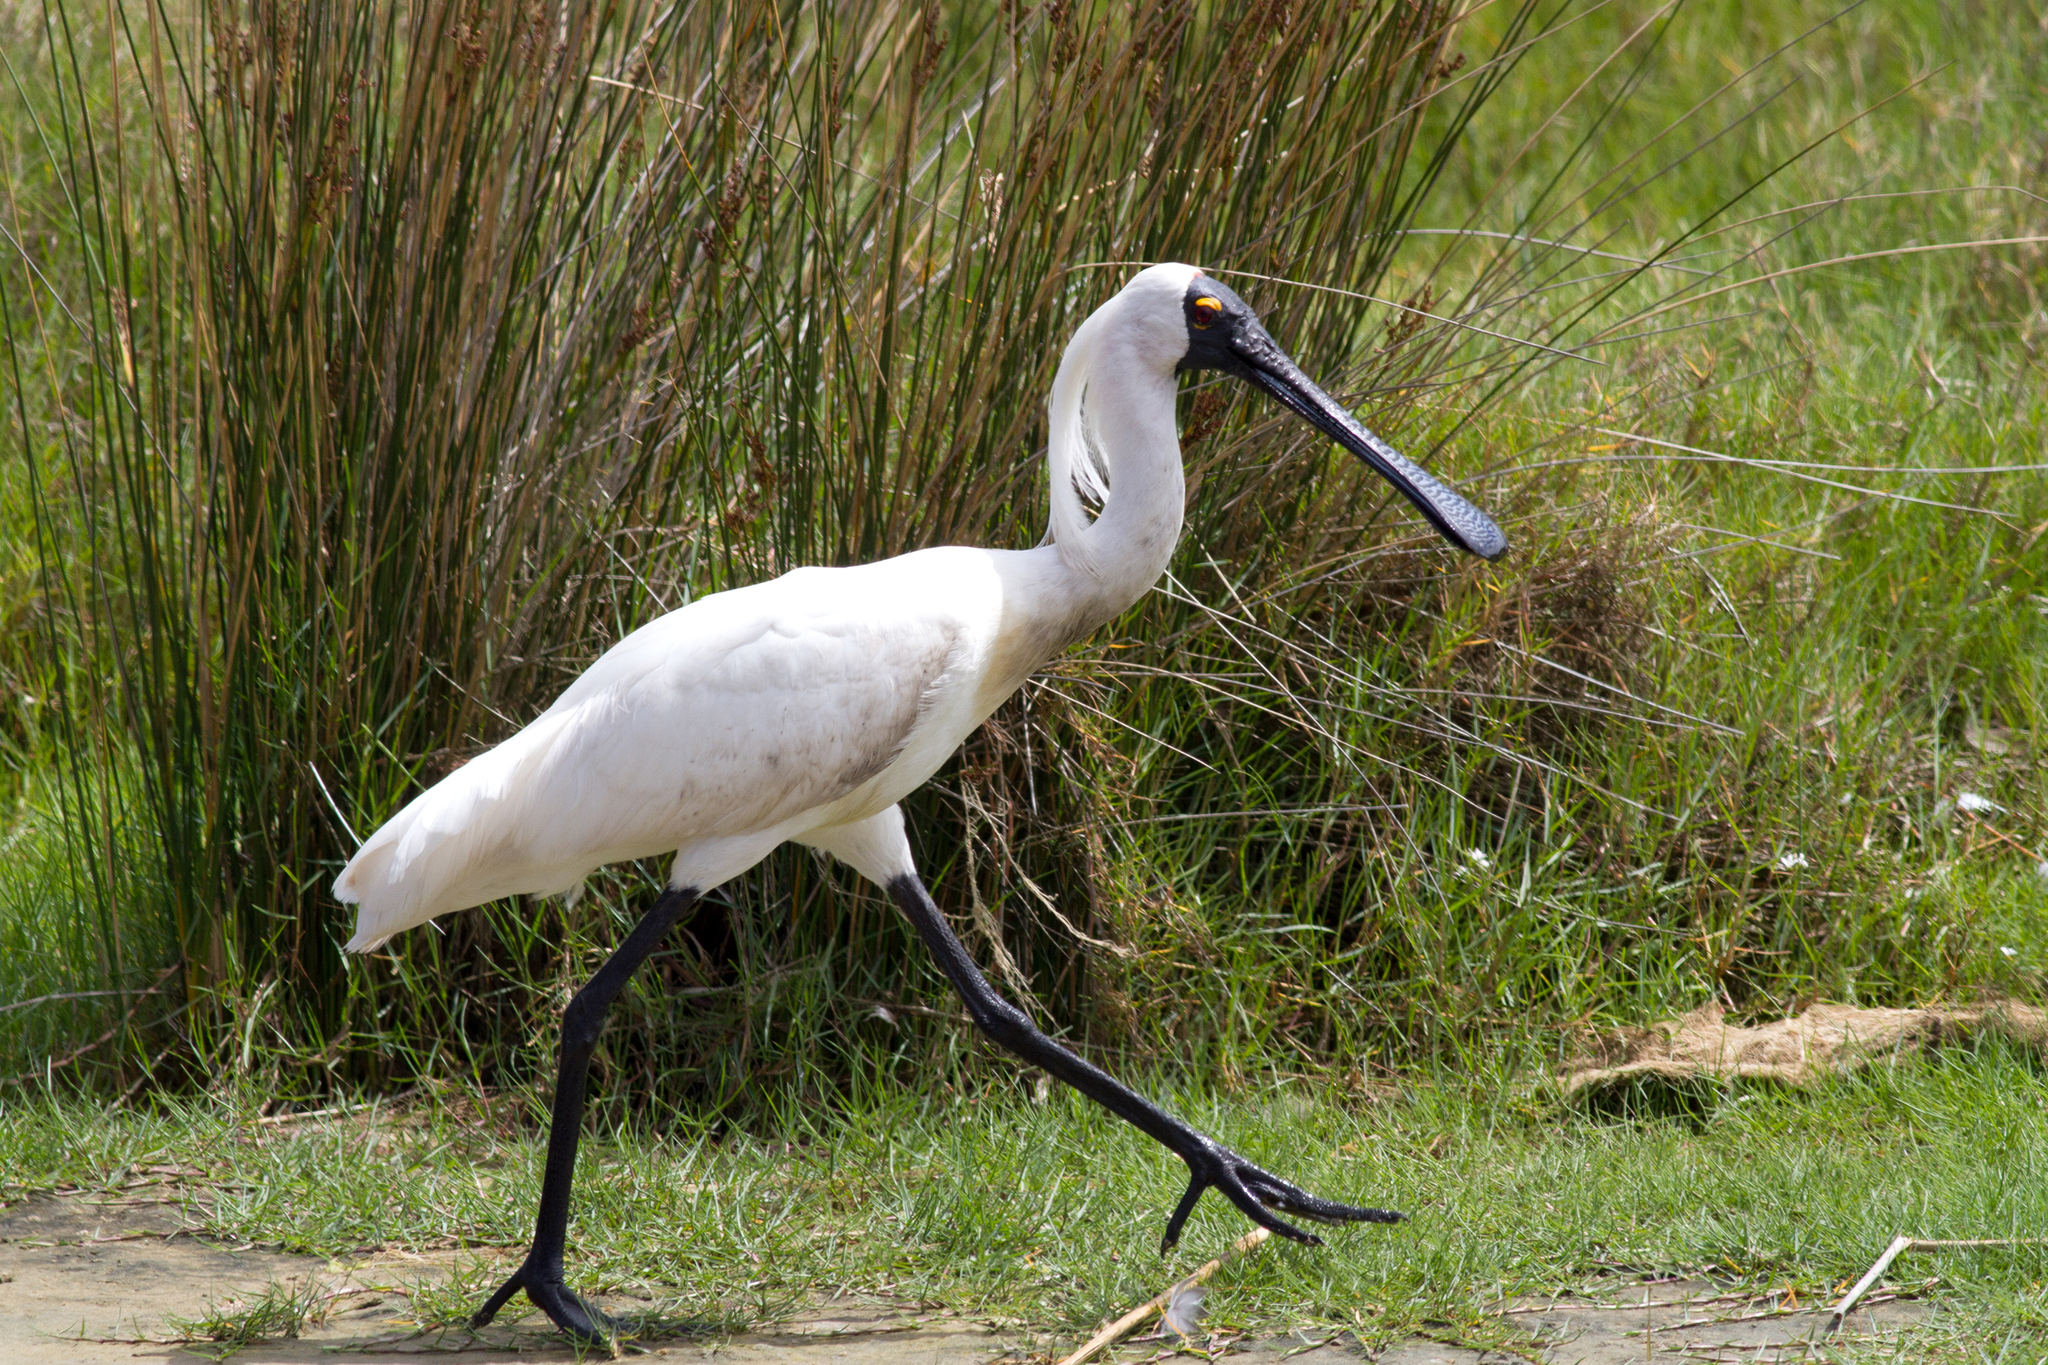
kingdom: Animalia
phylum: Chordata
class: Aves
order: Pelecaniformes
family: Threskiornithidae
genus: Platalea
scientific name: Platalea regia
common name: Royal spoonbill
